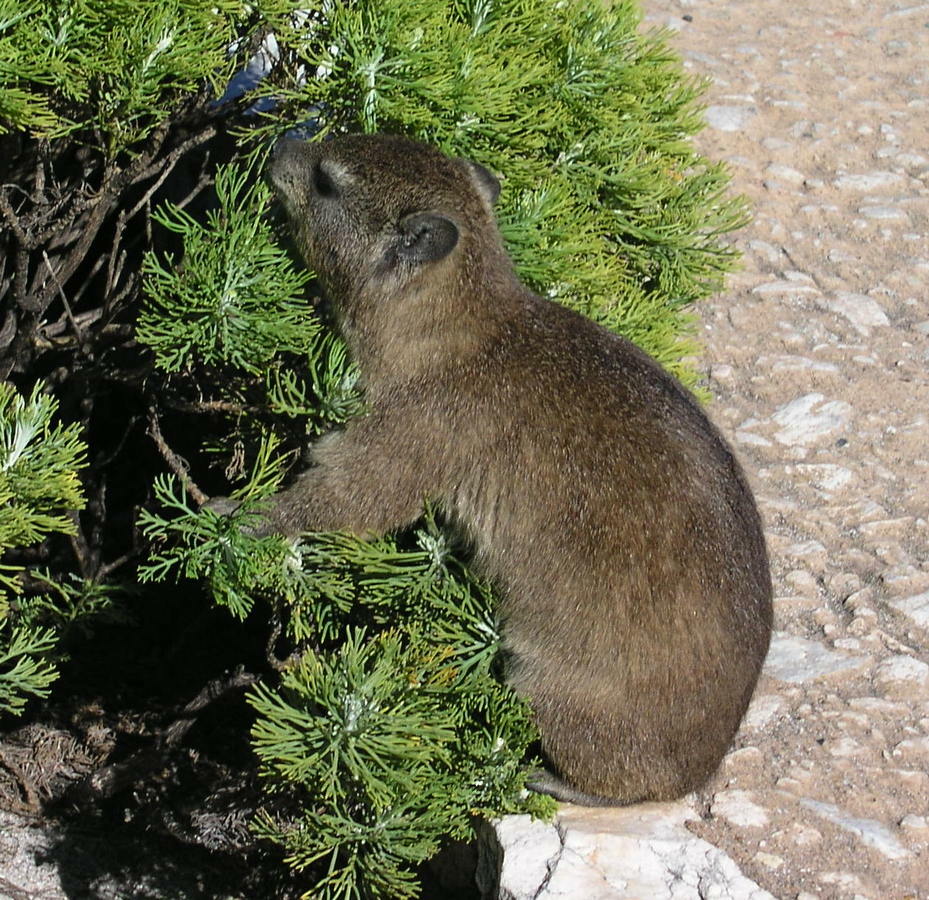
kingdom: Animalia
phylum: Chordata
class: Mammalia
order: Hyracoidea
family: Procaviidae
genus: Procavia
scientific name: Procavia capensis
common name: Rock hyrax
